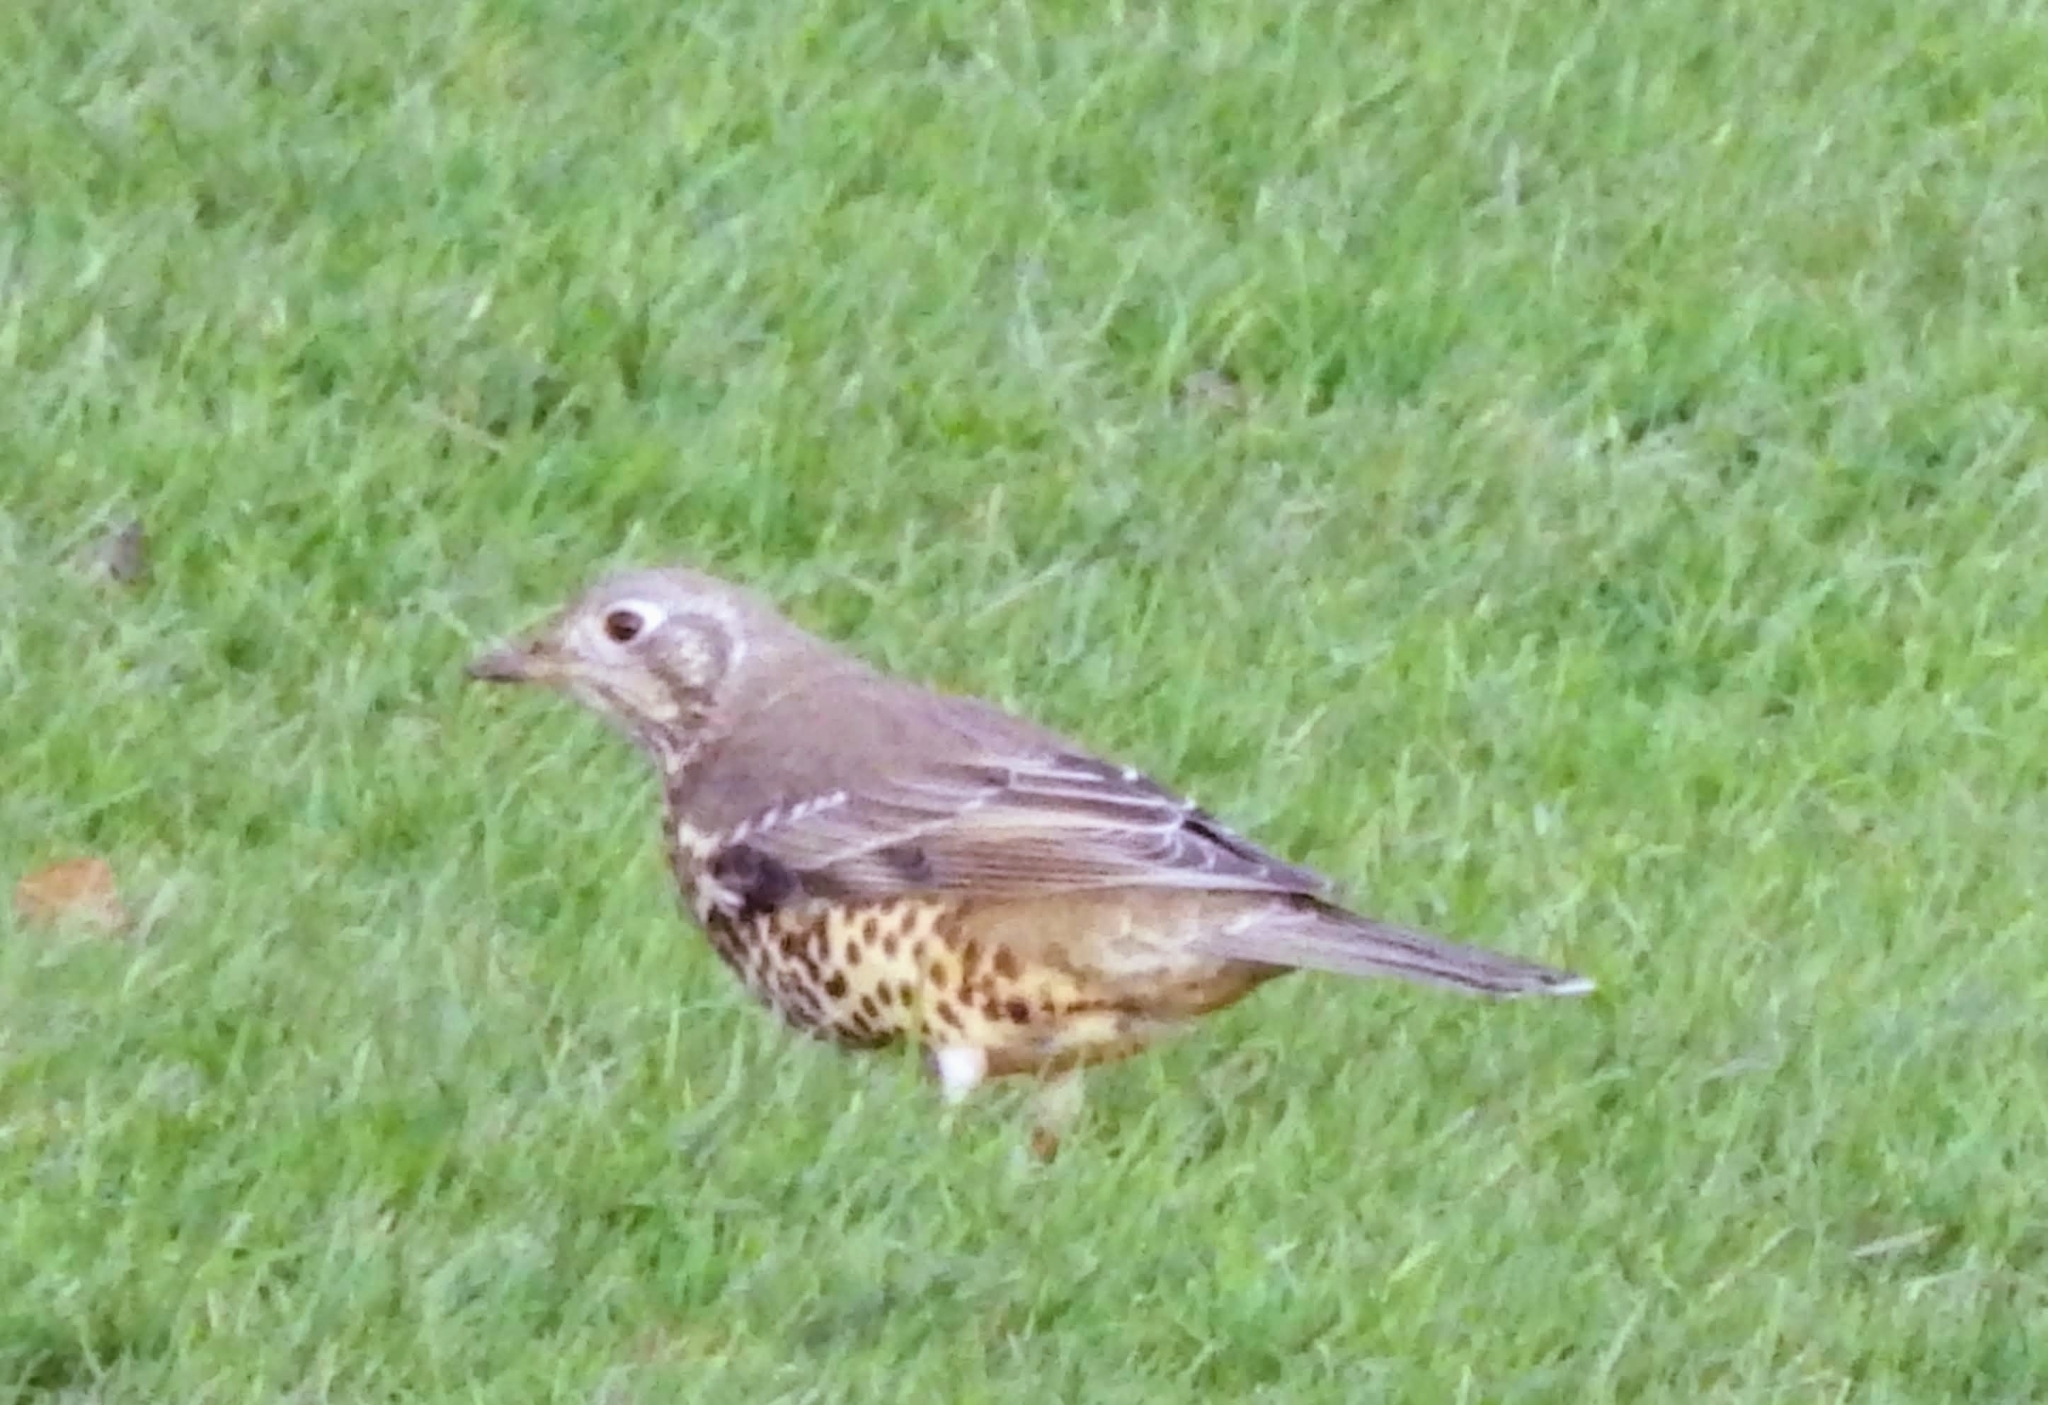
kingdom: Animalia
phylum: Chordata
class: Aves
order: Passeriformes
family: Turdidae
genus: Turdus
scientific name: Turdus viscivorus
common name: Mistle thrush
